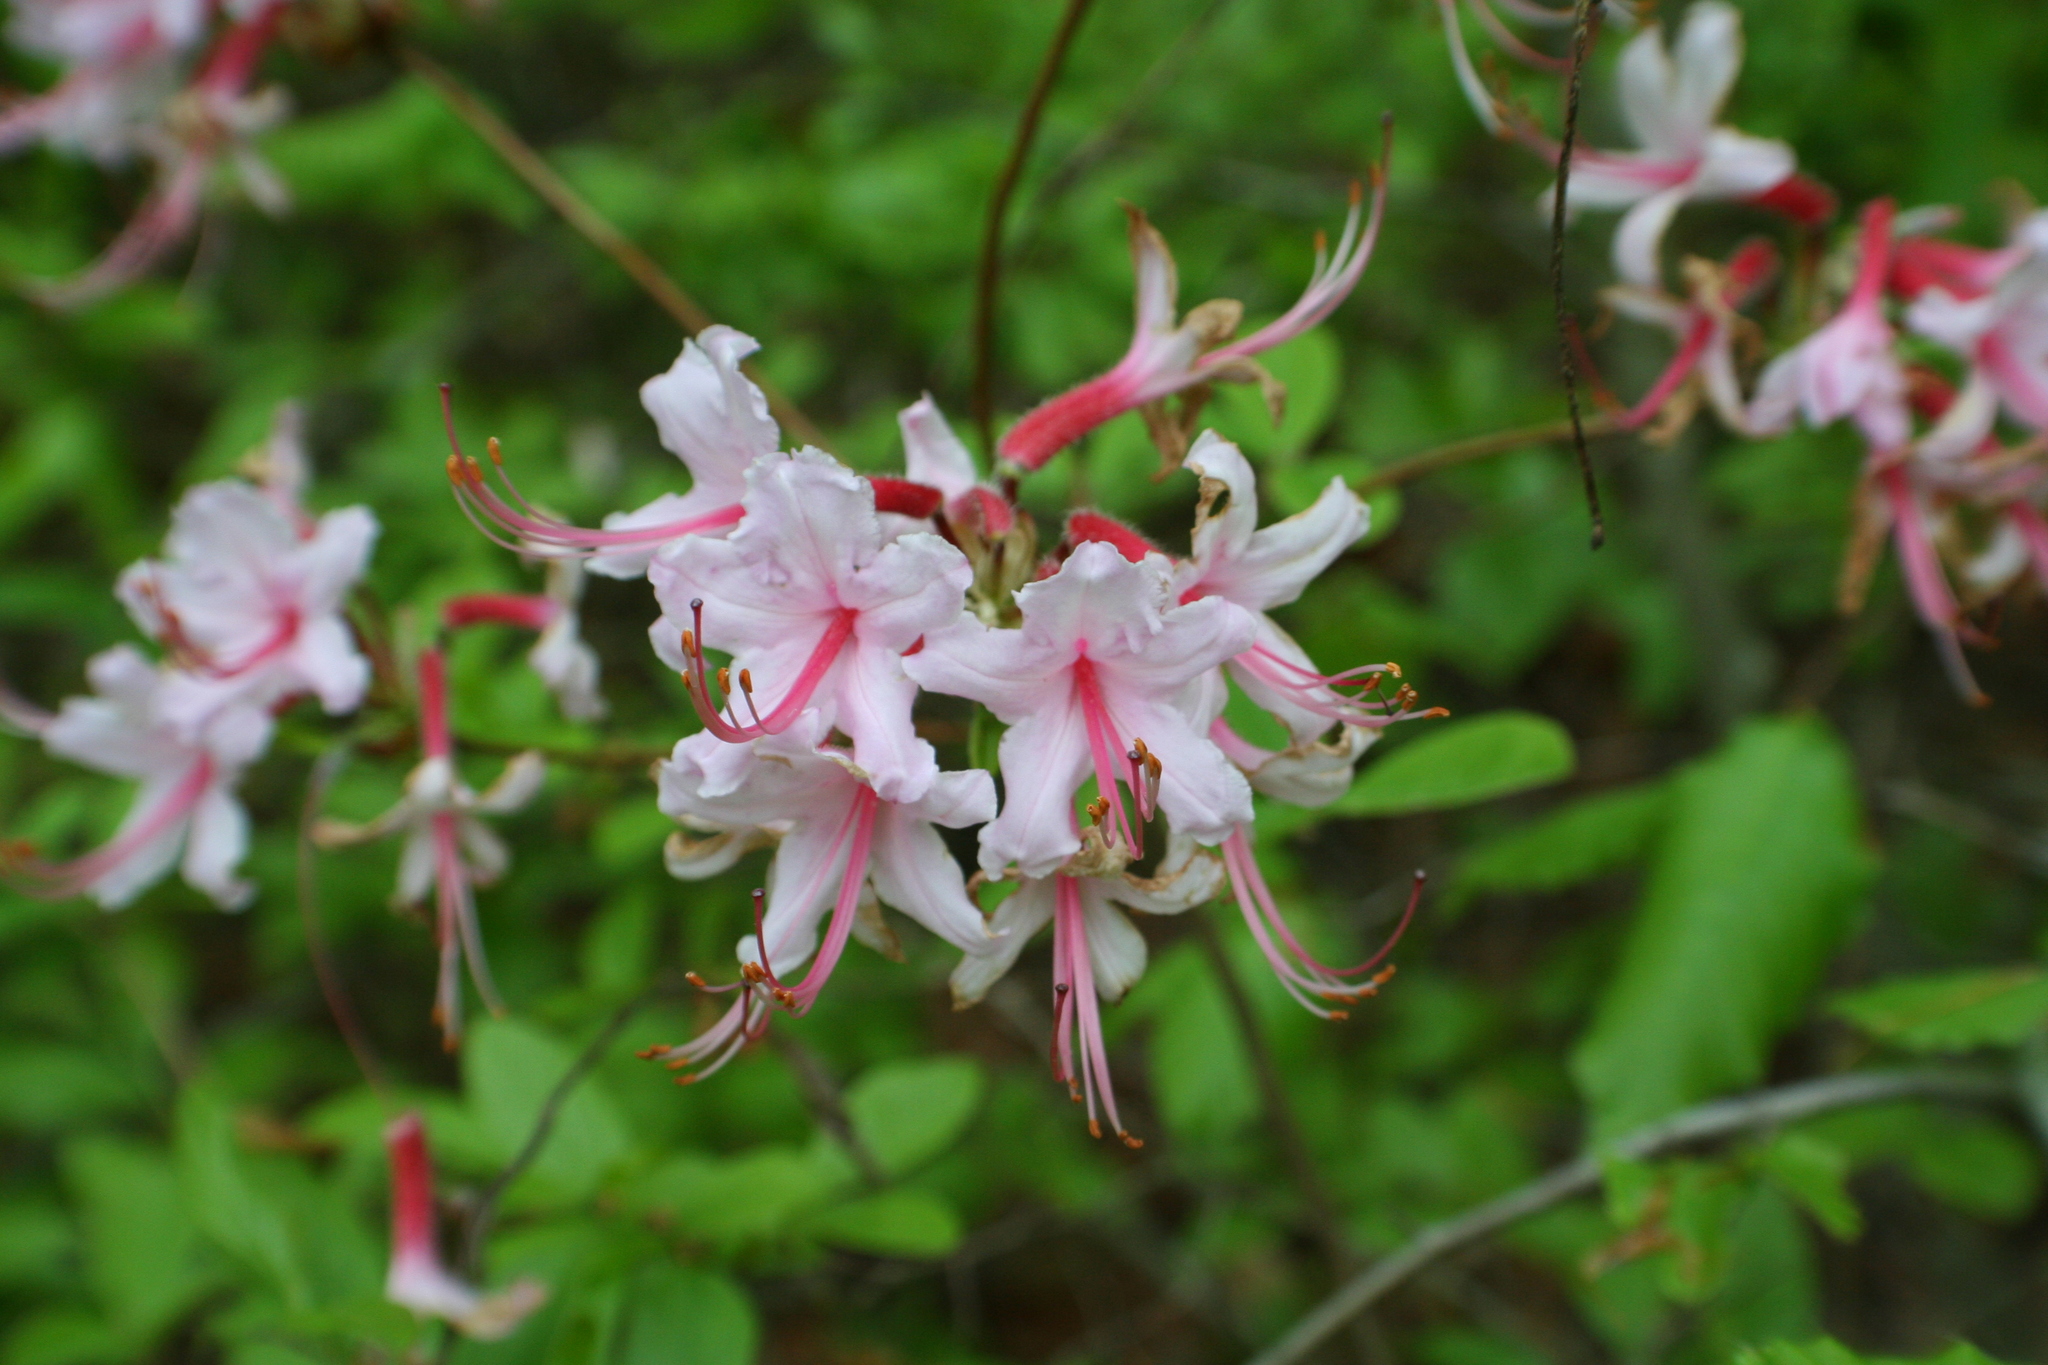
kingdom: Plantae
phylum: Tracheophyta
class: Magnoliopsida
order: Ericales
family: Ericaceae
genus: Rhododendron
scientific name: Rhododendron periclymenoides
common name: Election-pink
